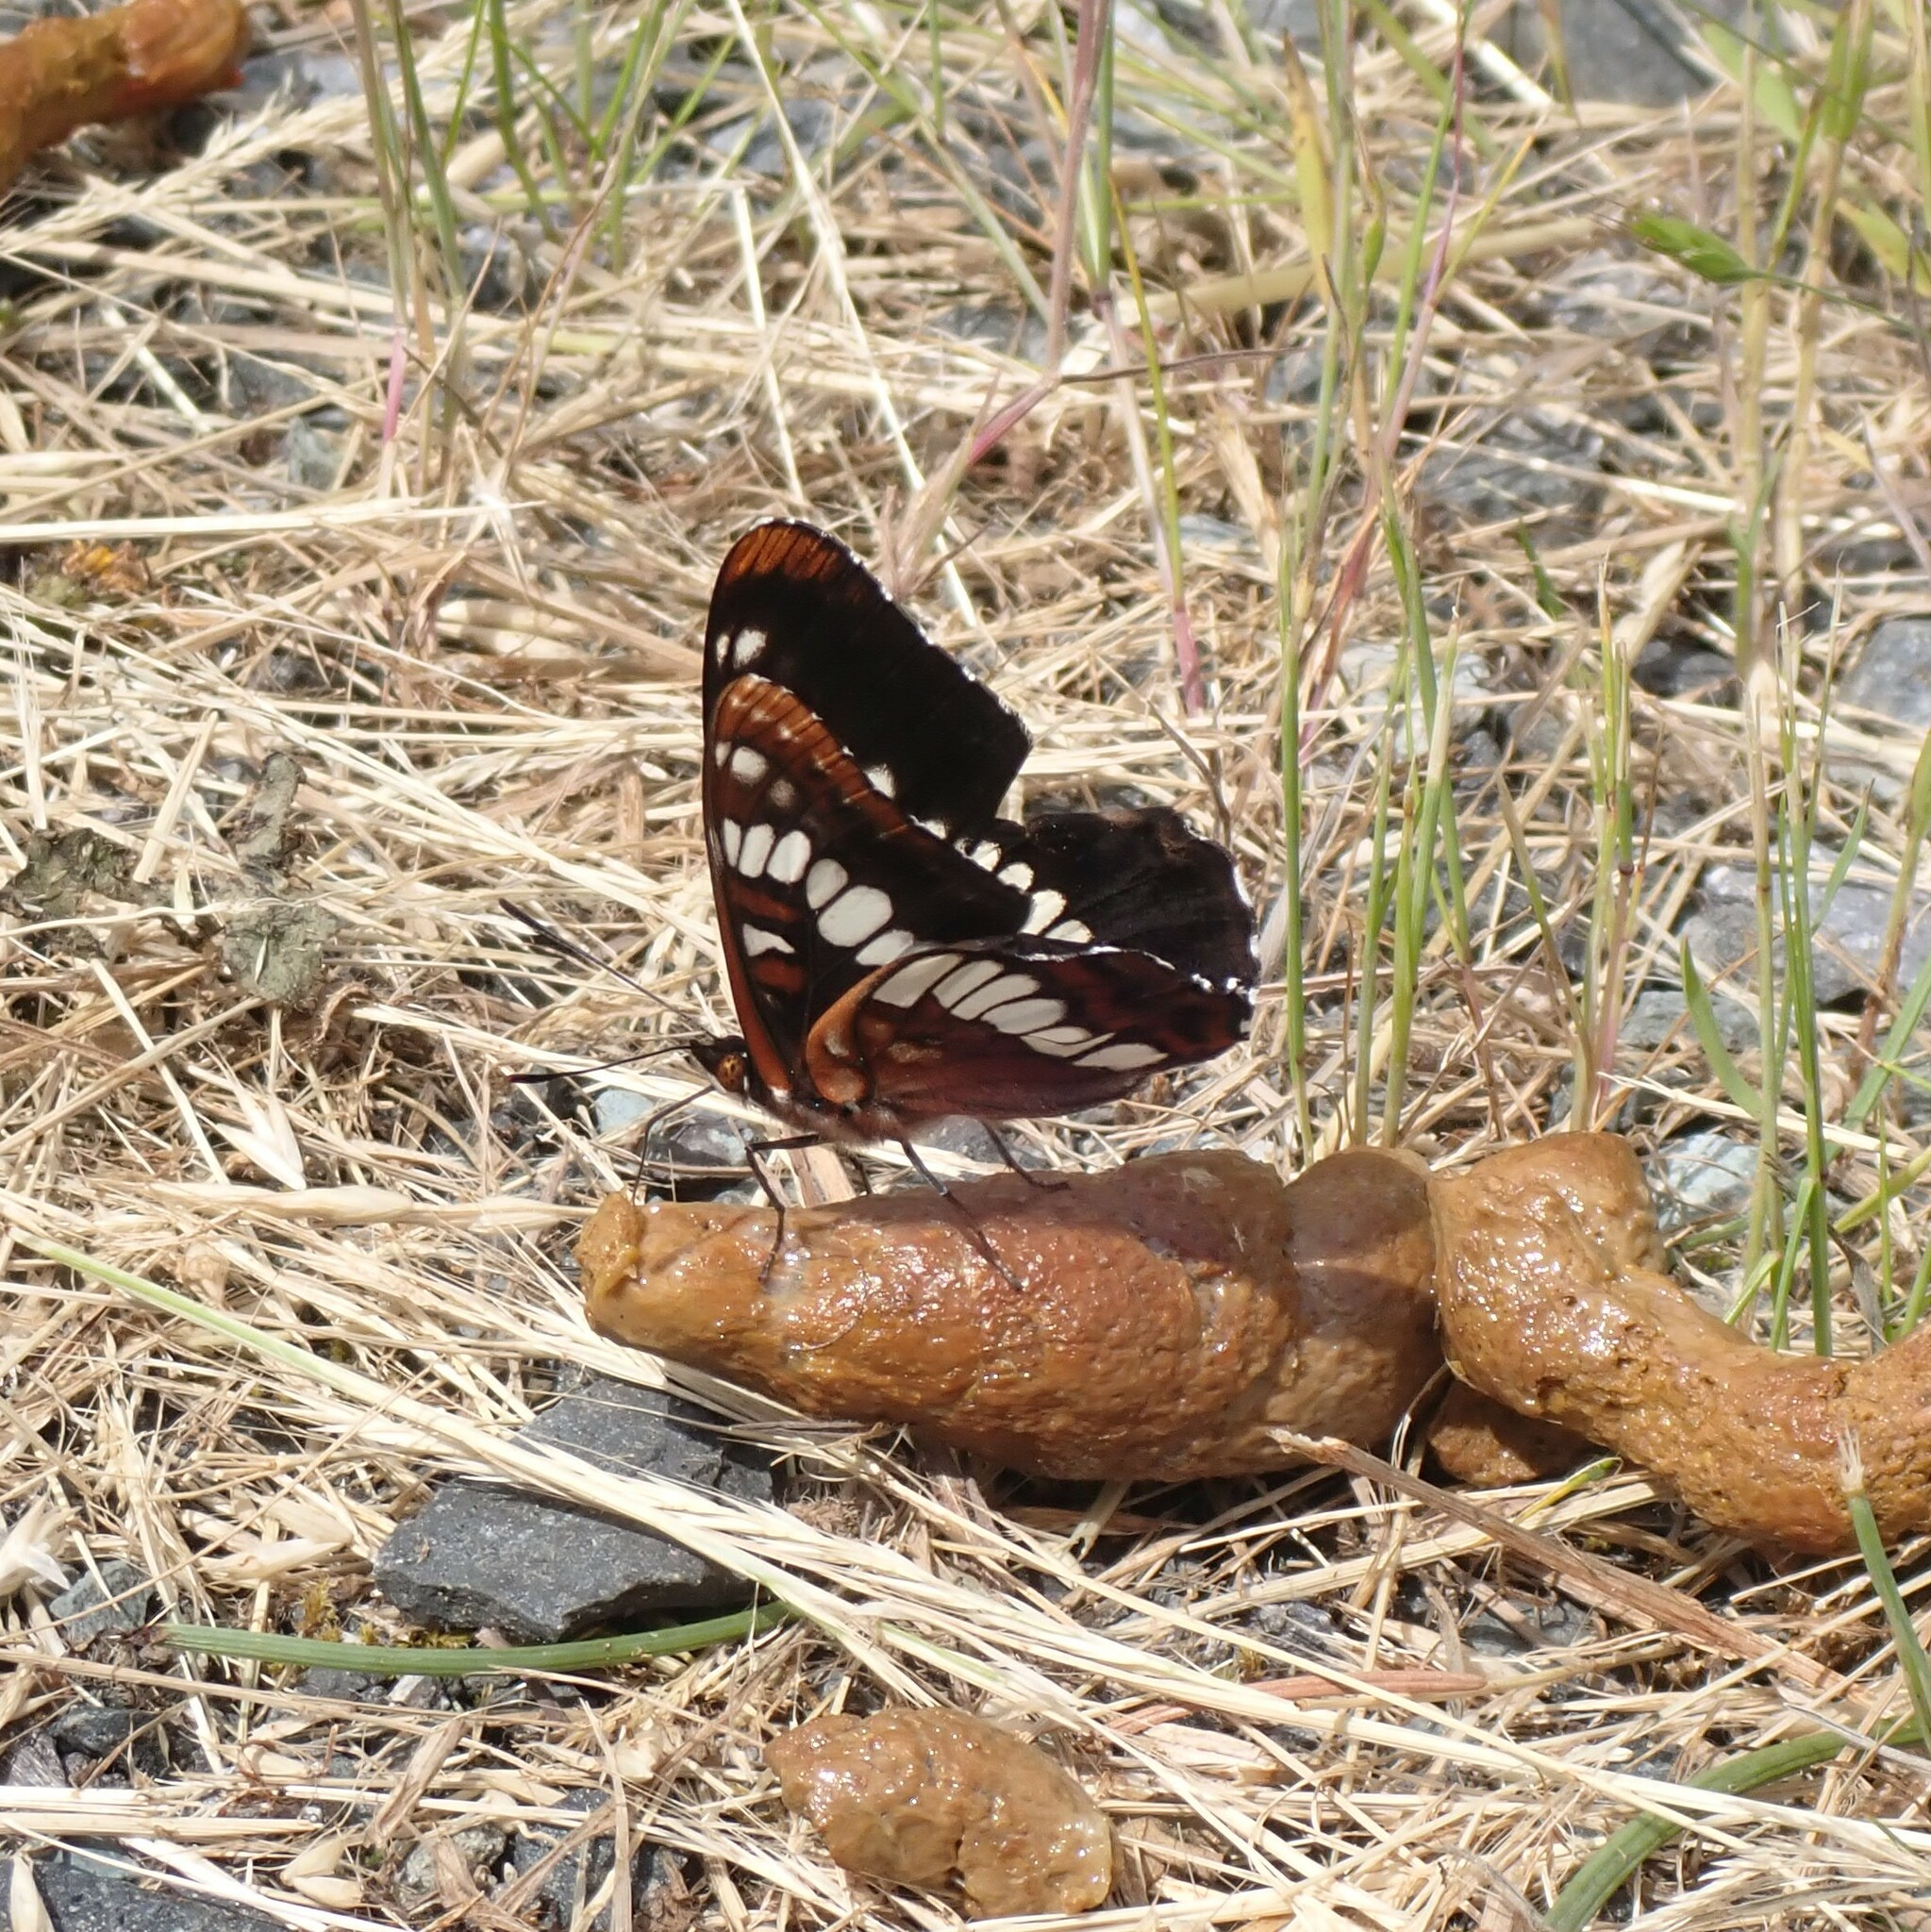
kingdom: Animalia
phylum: Arthropoda
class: Insecta
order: Lepidoptera
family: Nymphalidae
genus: Limenitis
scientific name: Limenitis lorquini
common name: Lorquin's admiral
